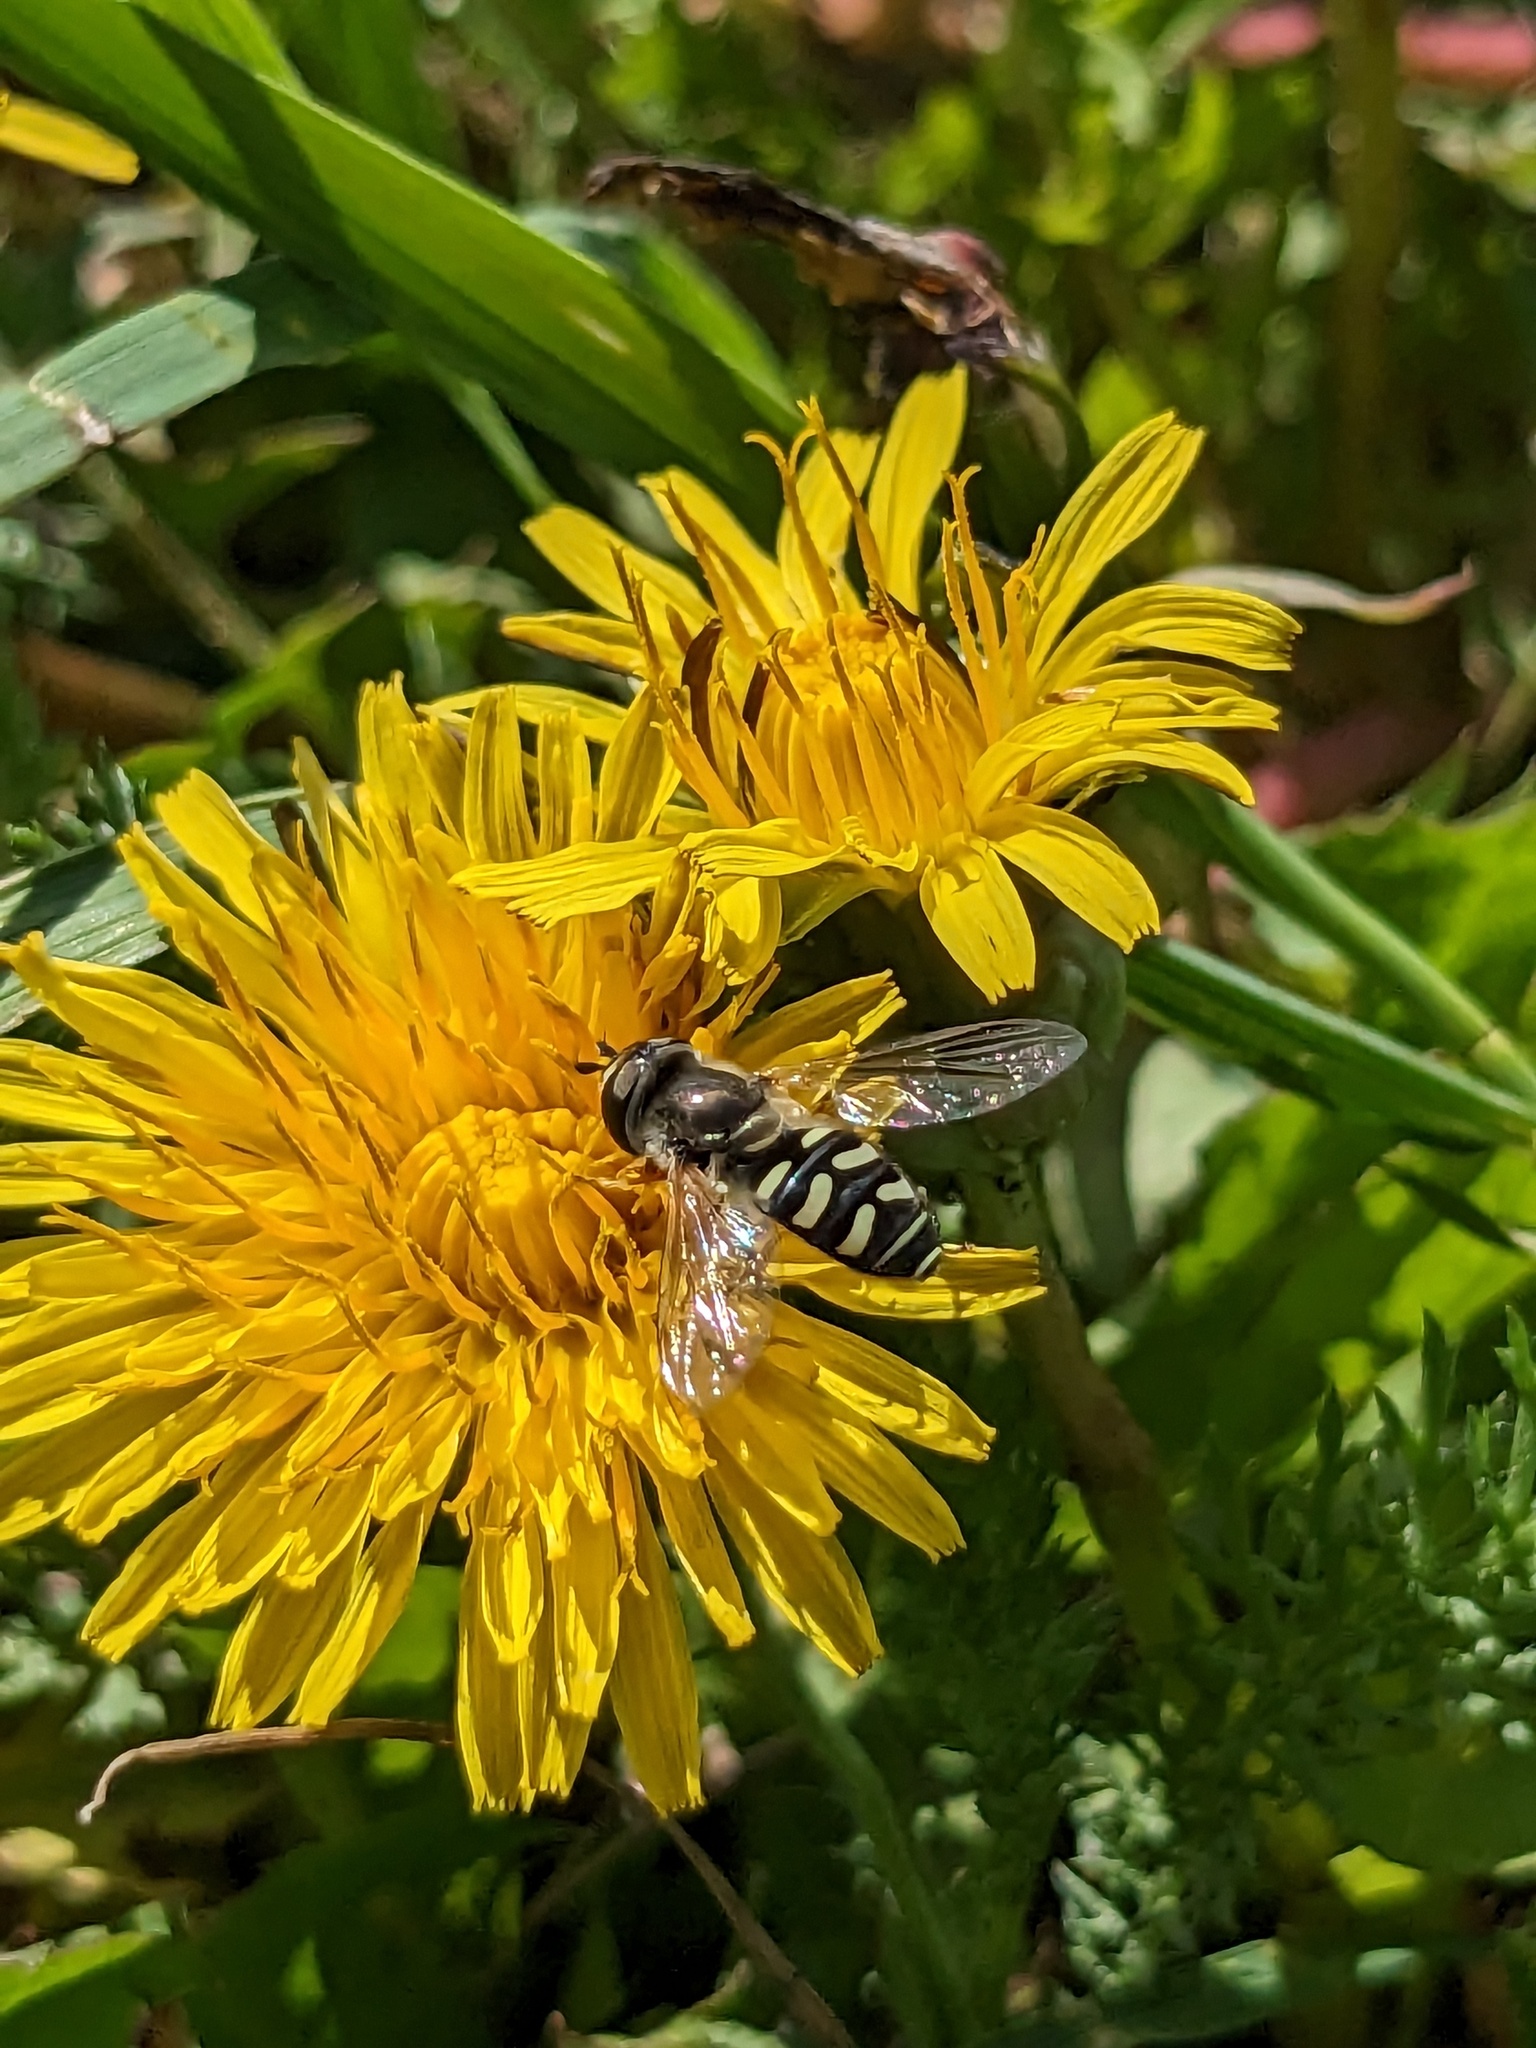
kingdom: Animalia
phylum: Arthropoda
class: Insecta
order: Diptera
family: Syrphidae
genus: Eupeodes
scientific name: Eupeodes volucris
